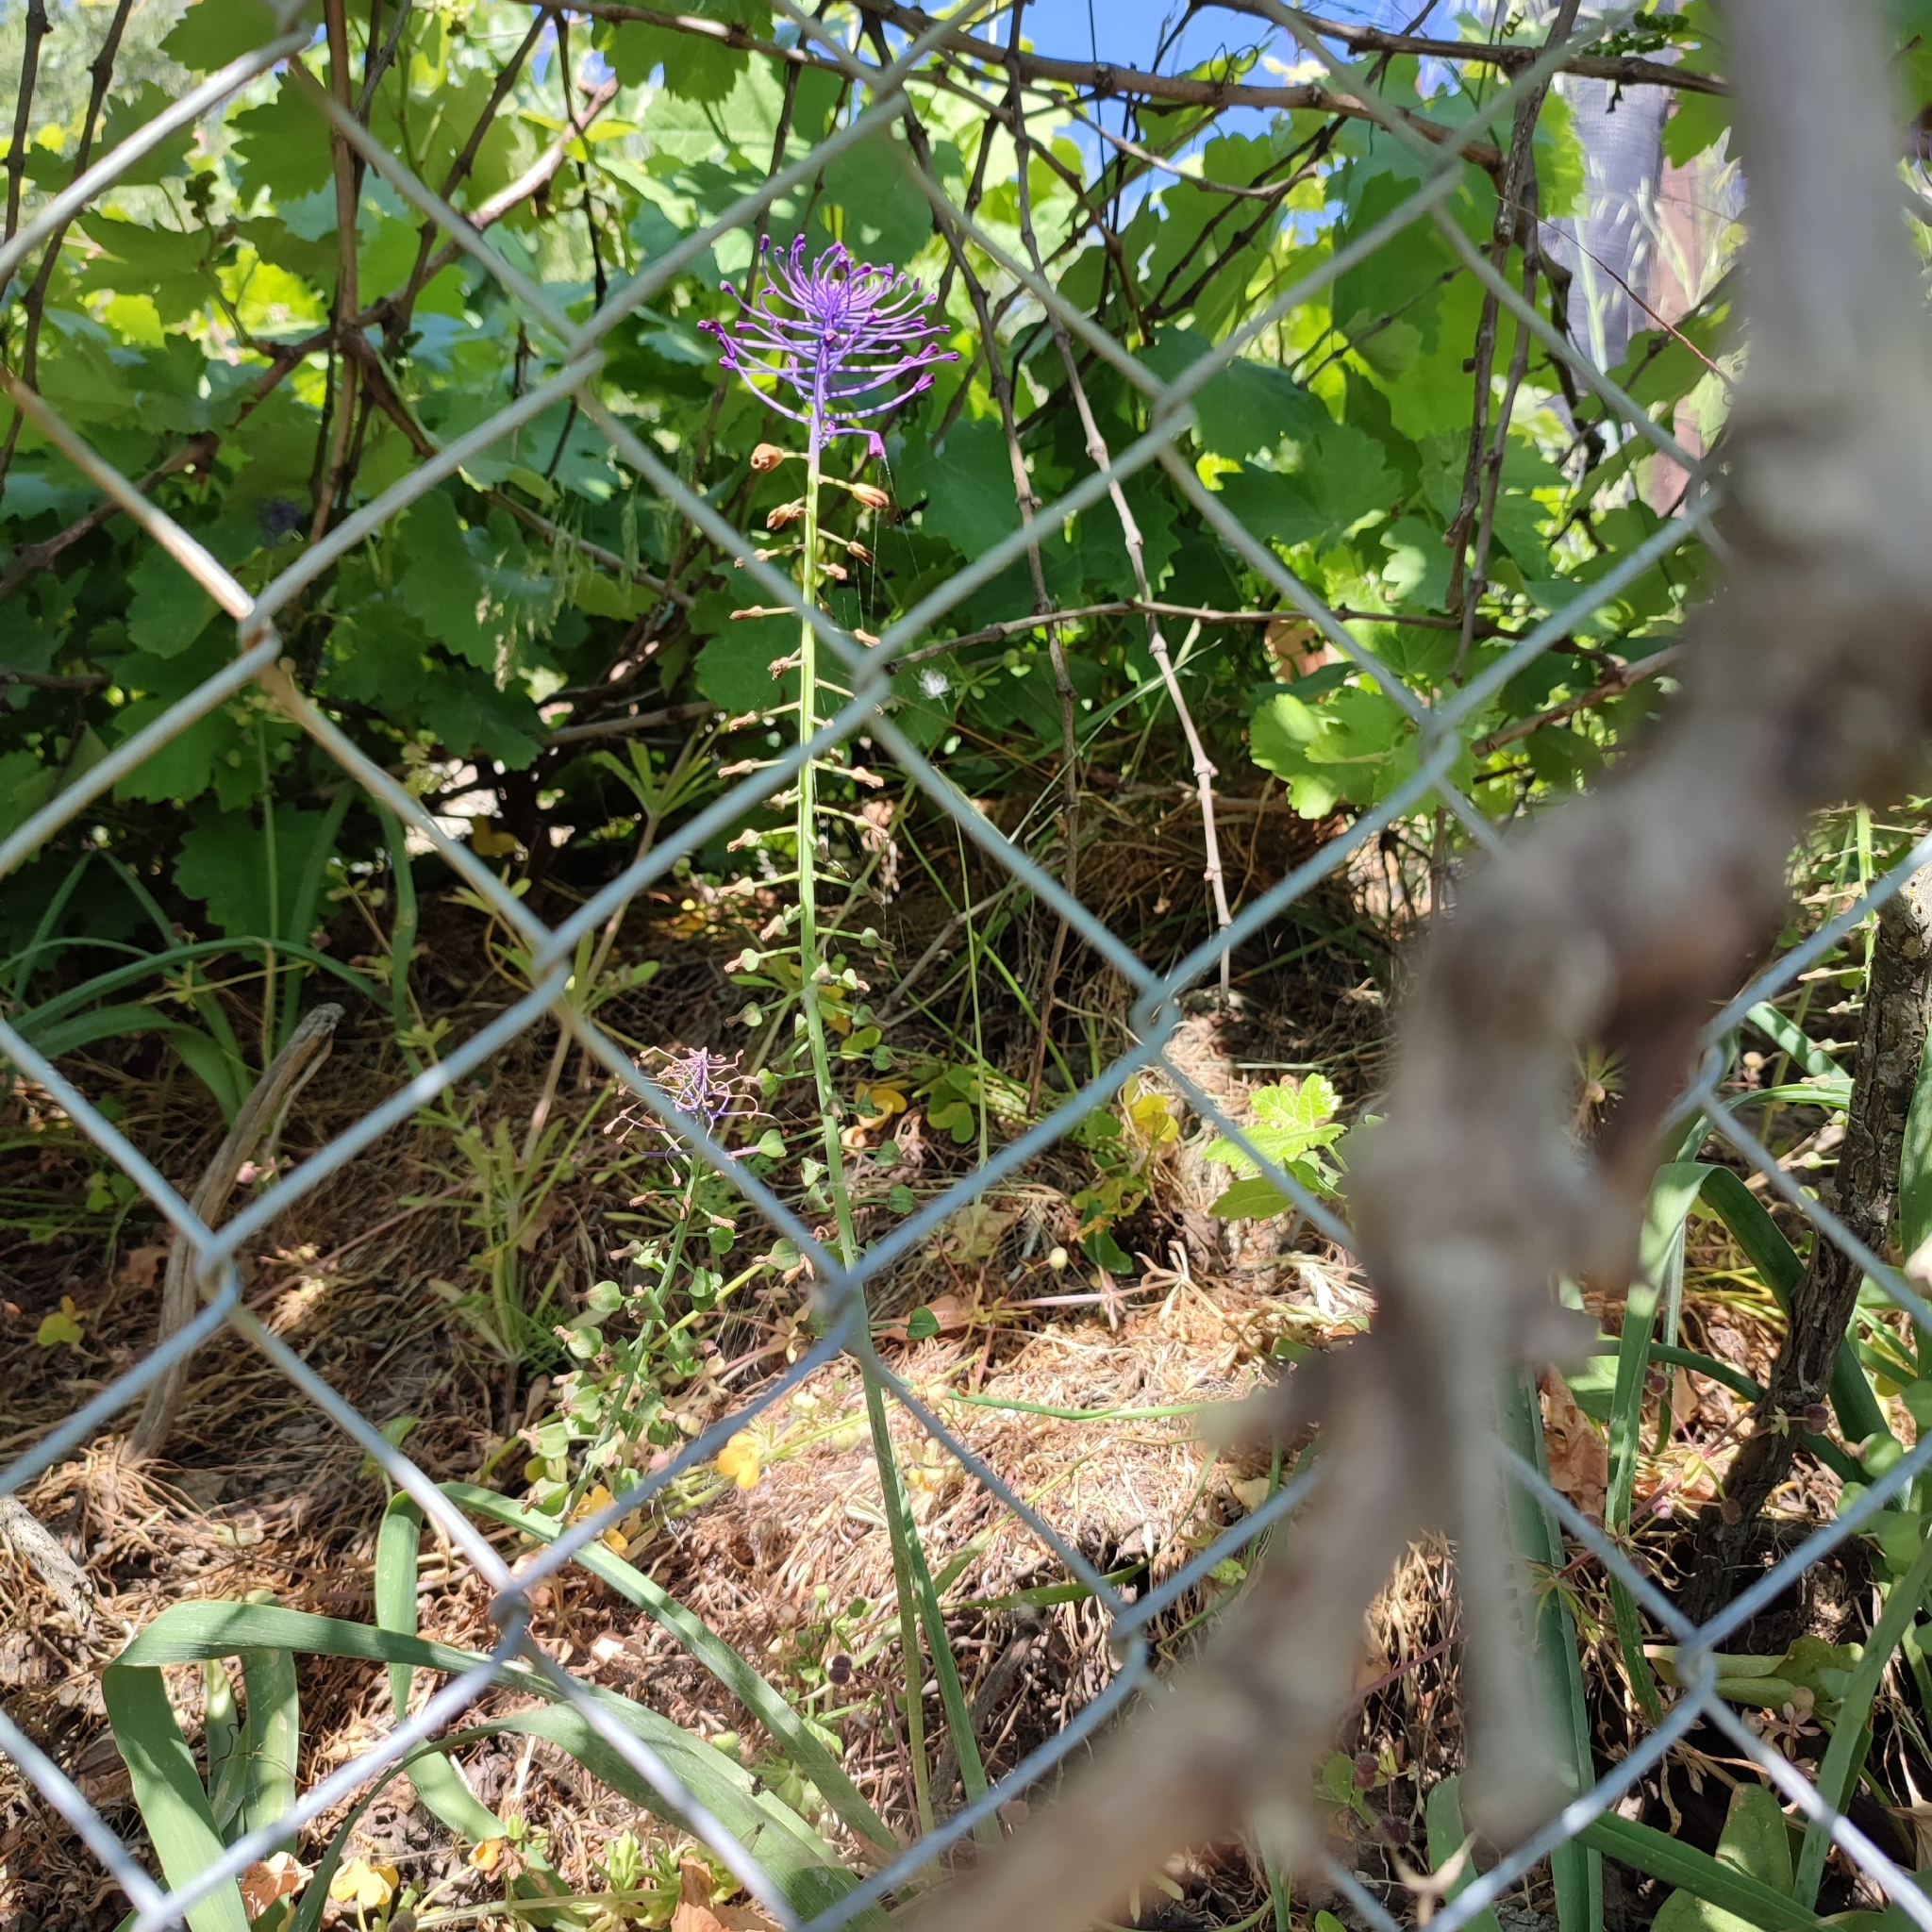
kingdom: Plantae
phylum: Tracheophyta
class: Liliopsida
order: Asparagales
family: Asparagaceae
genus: Muscari
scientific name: Muscari comosum
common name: Tassel hyacinth
